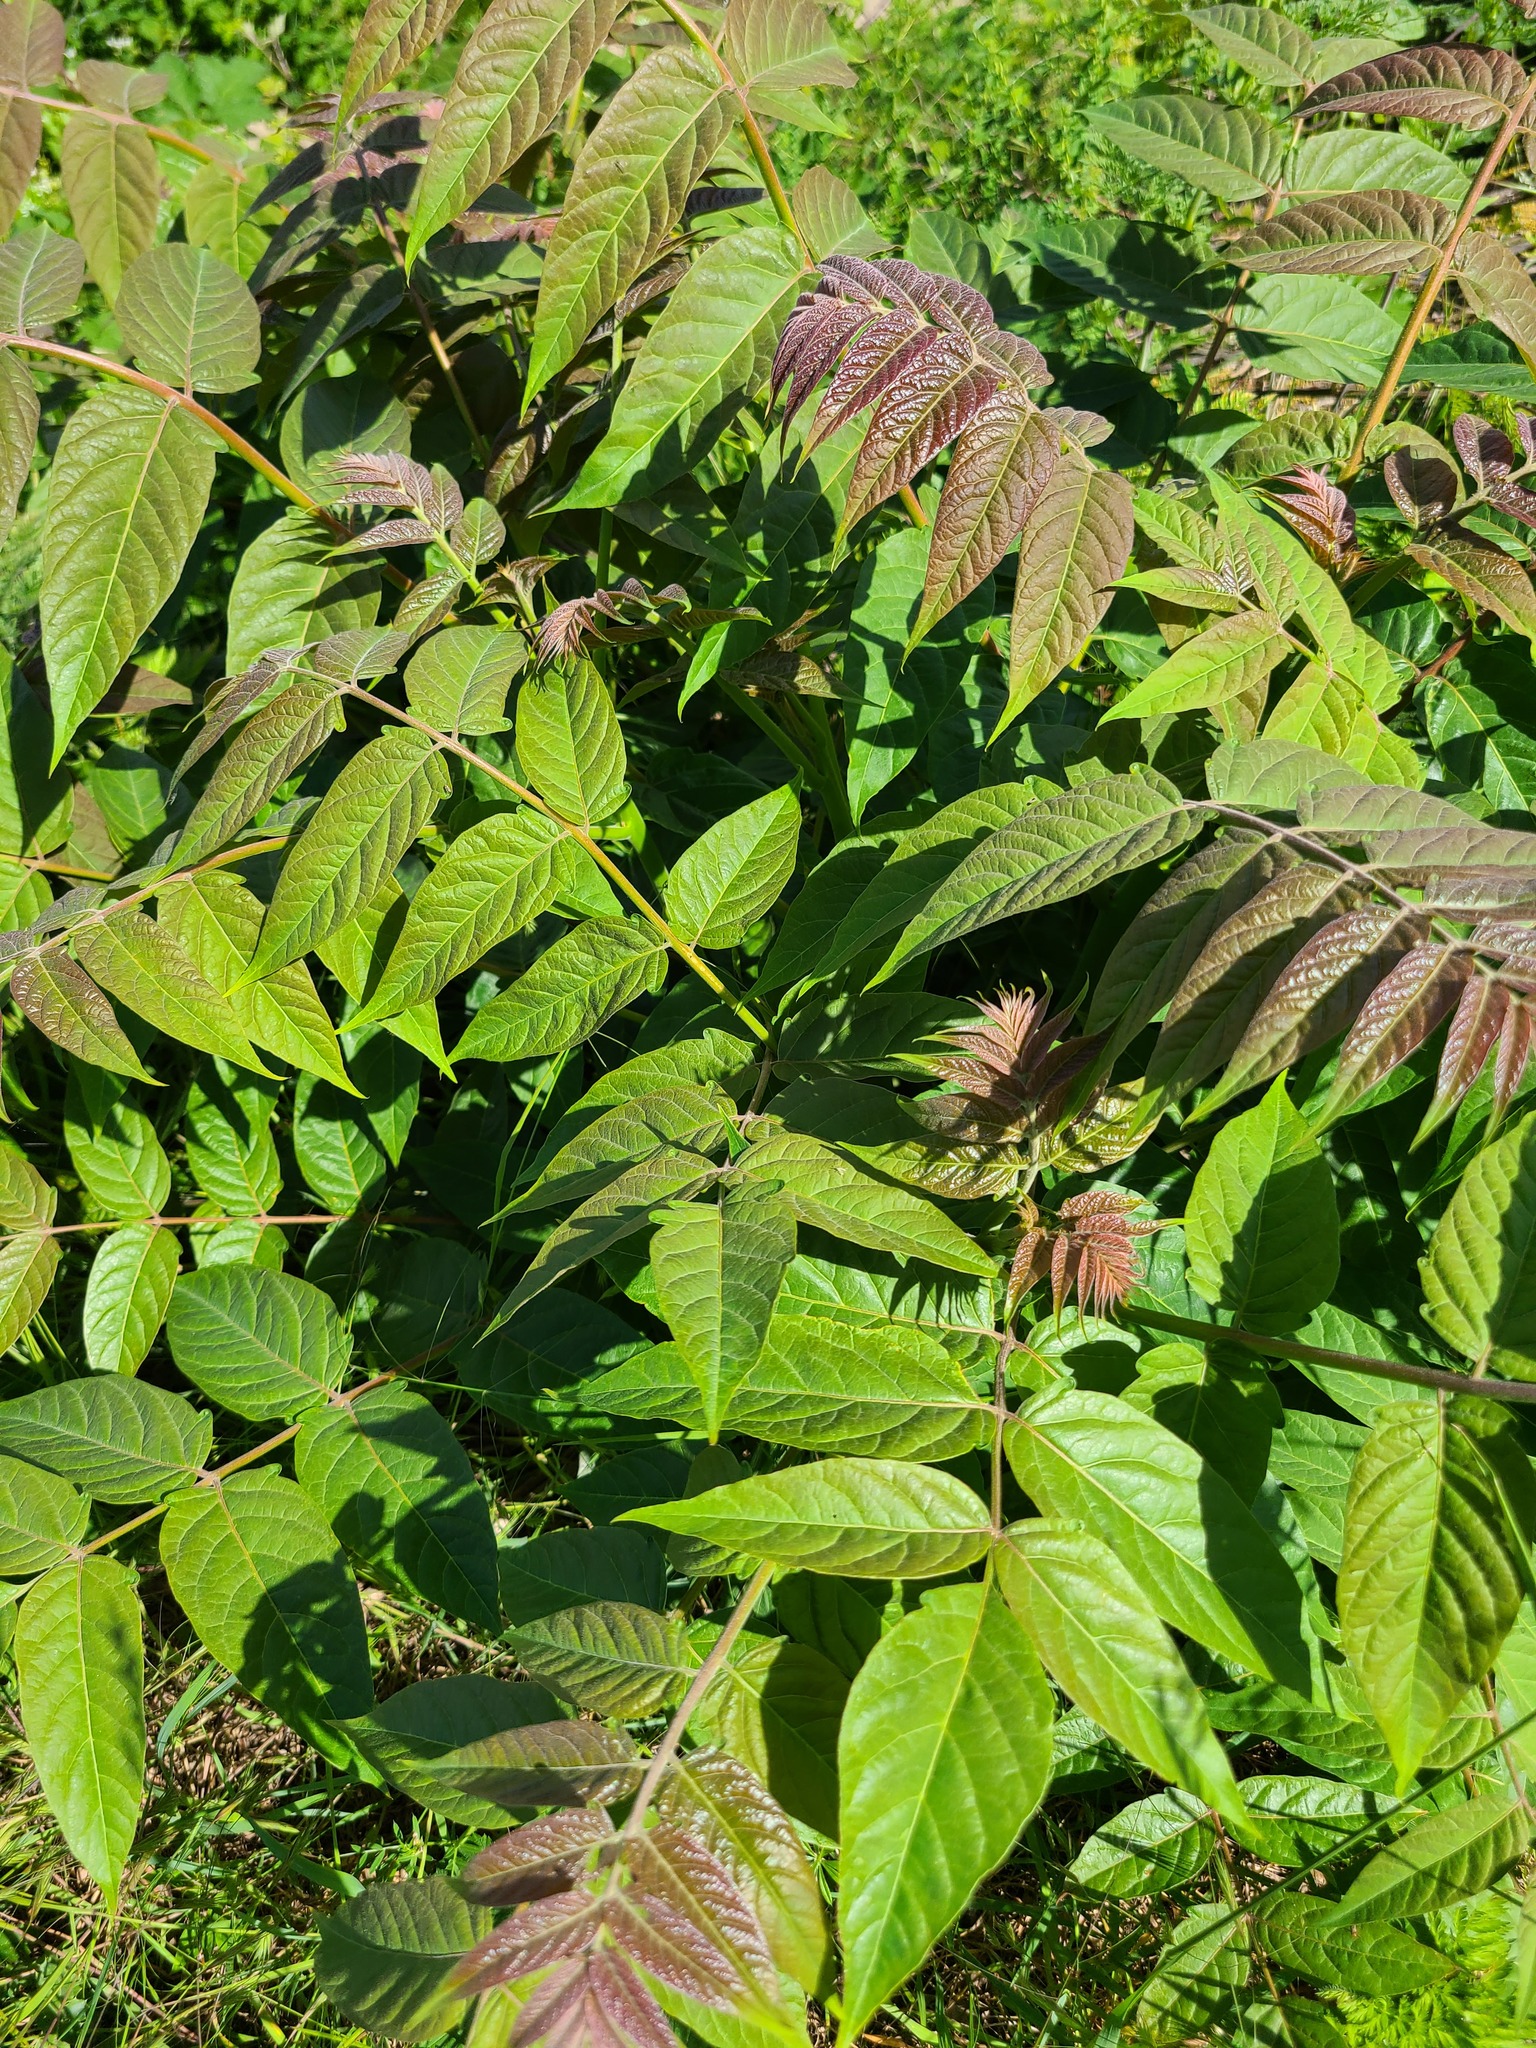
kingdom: Plantae
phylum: Tracheophyta
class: Magnoliopsida
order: Sapindales
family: Simaroubaceae
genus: Ailanthus
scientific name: Ailanthus altissima
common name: Tree-of-heaven
